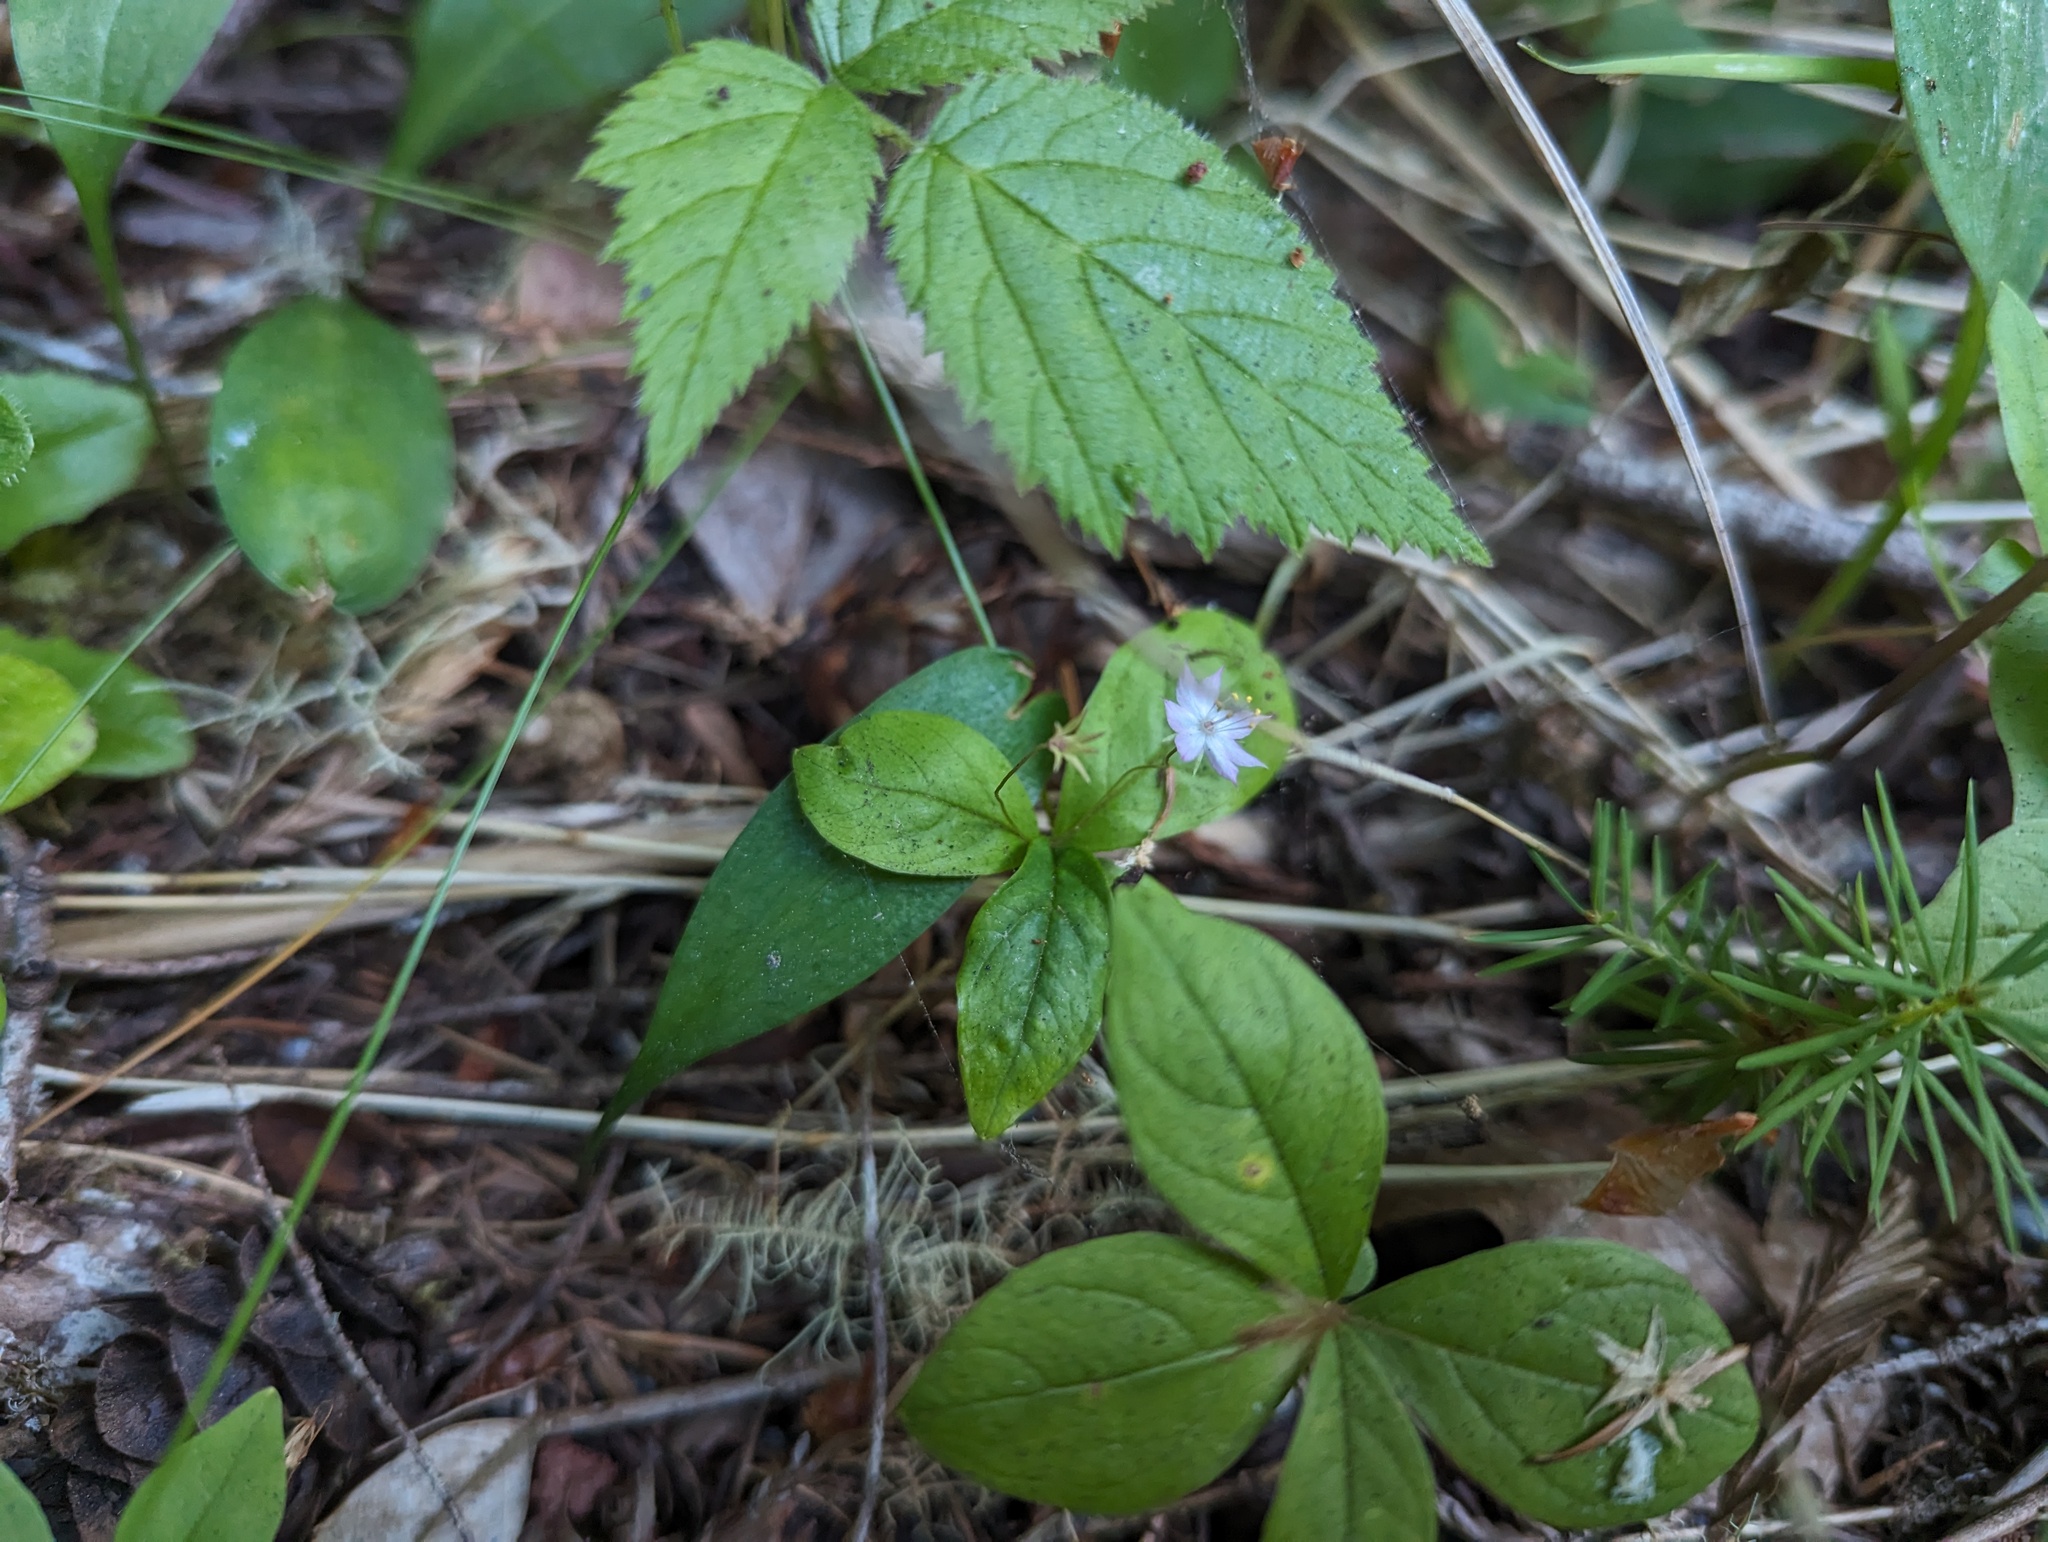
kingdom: Plantae
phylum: Tracheophyta
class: Magnoliopsida
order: Ericales
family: Primulaceae
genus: Lysimachia
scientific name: Lysimachia latifolia
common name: Pacific starflower
